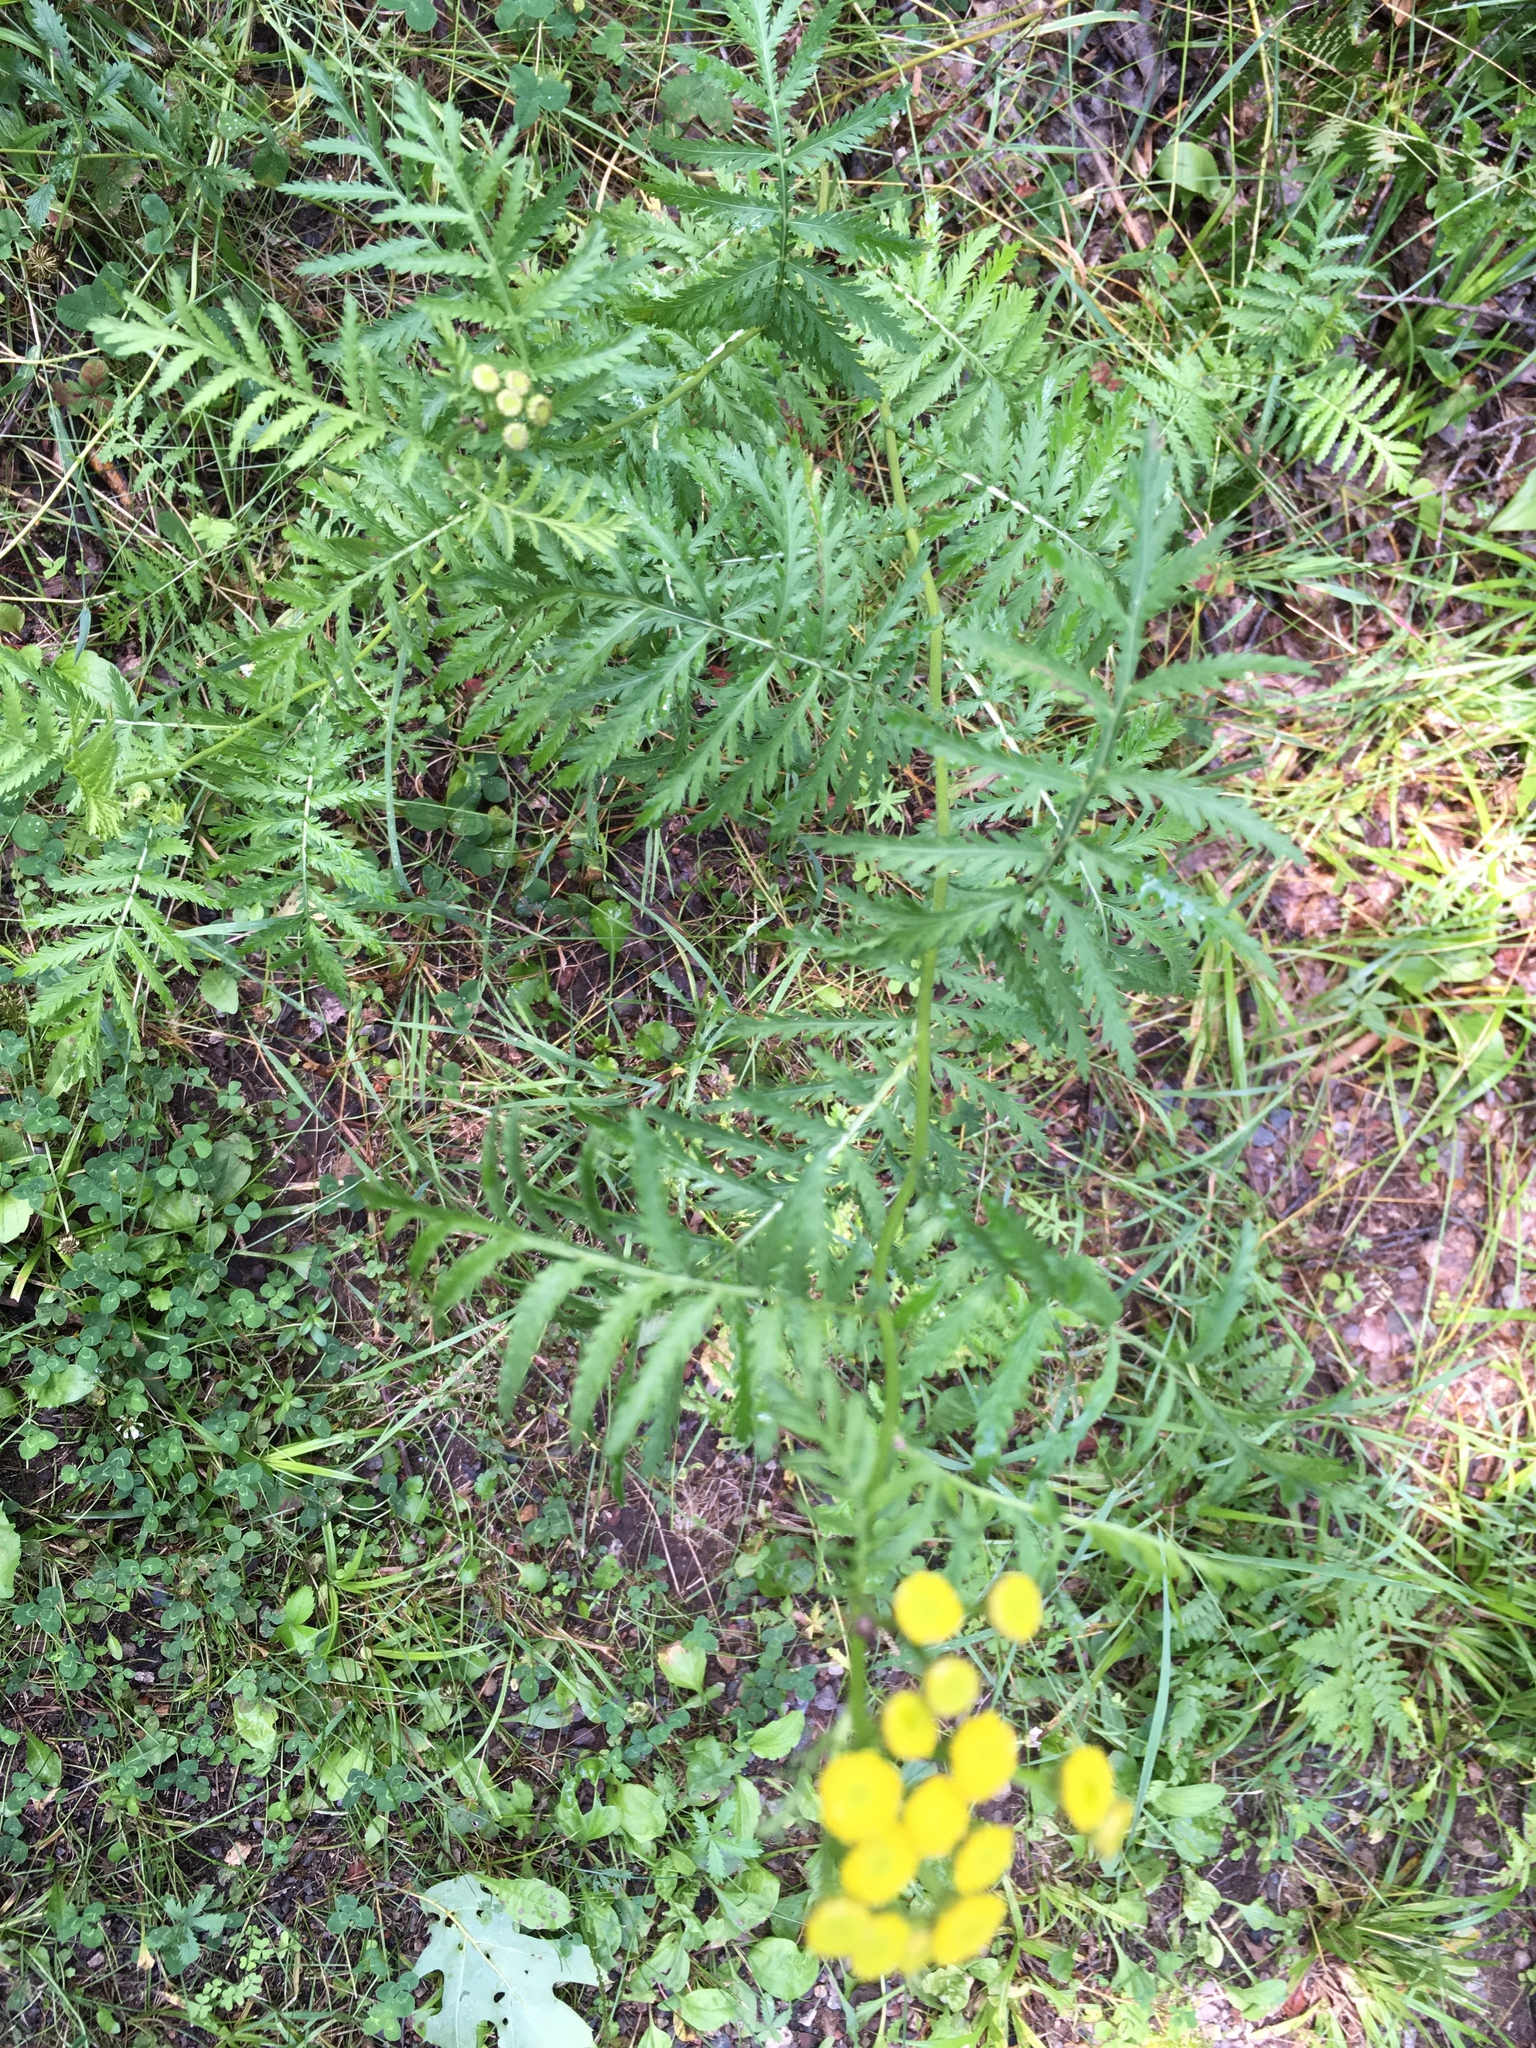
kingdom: Plantae
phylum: Tracheophyta
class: Magnoliopsida
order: Asterales
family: Asteraceae
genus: Tanacetum
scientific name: Tanacetum vulgare
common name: Common tansy
